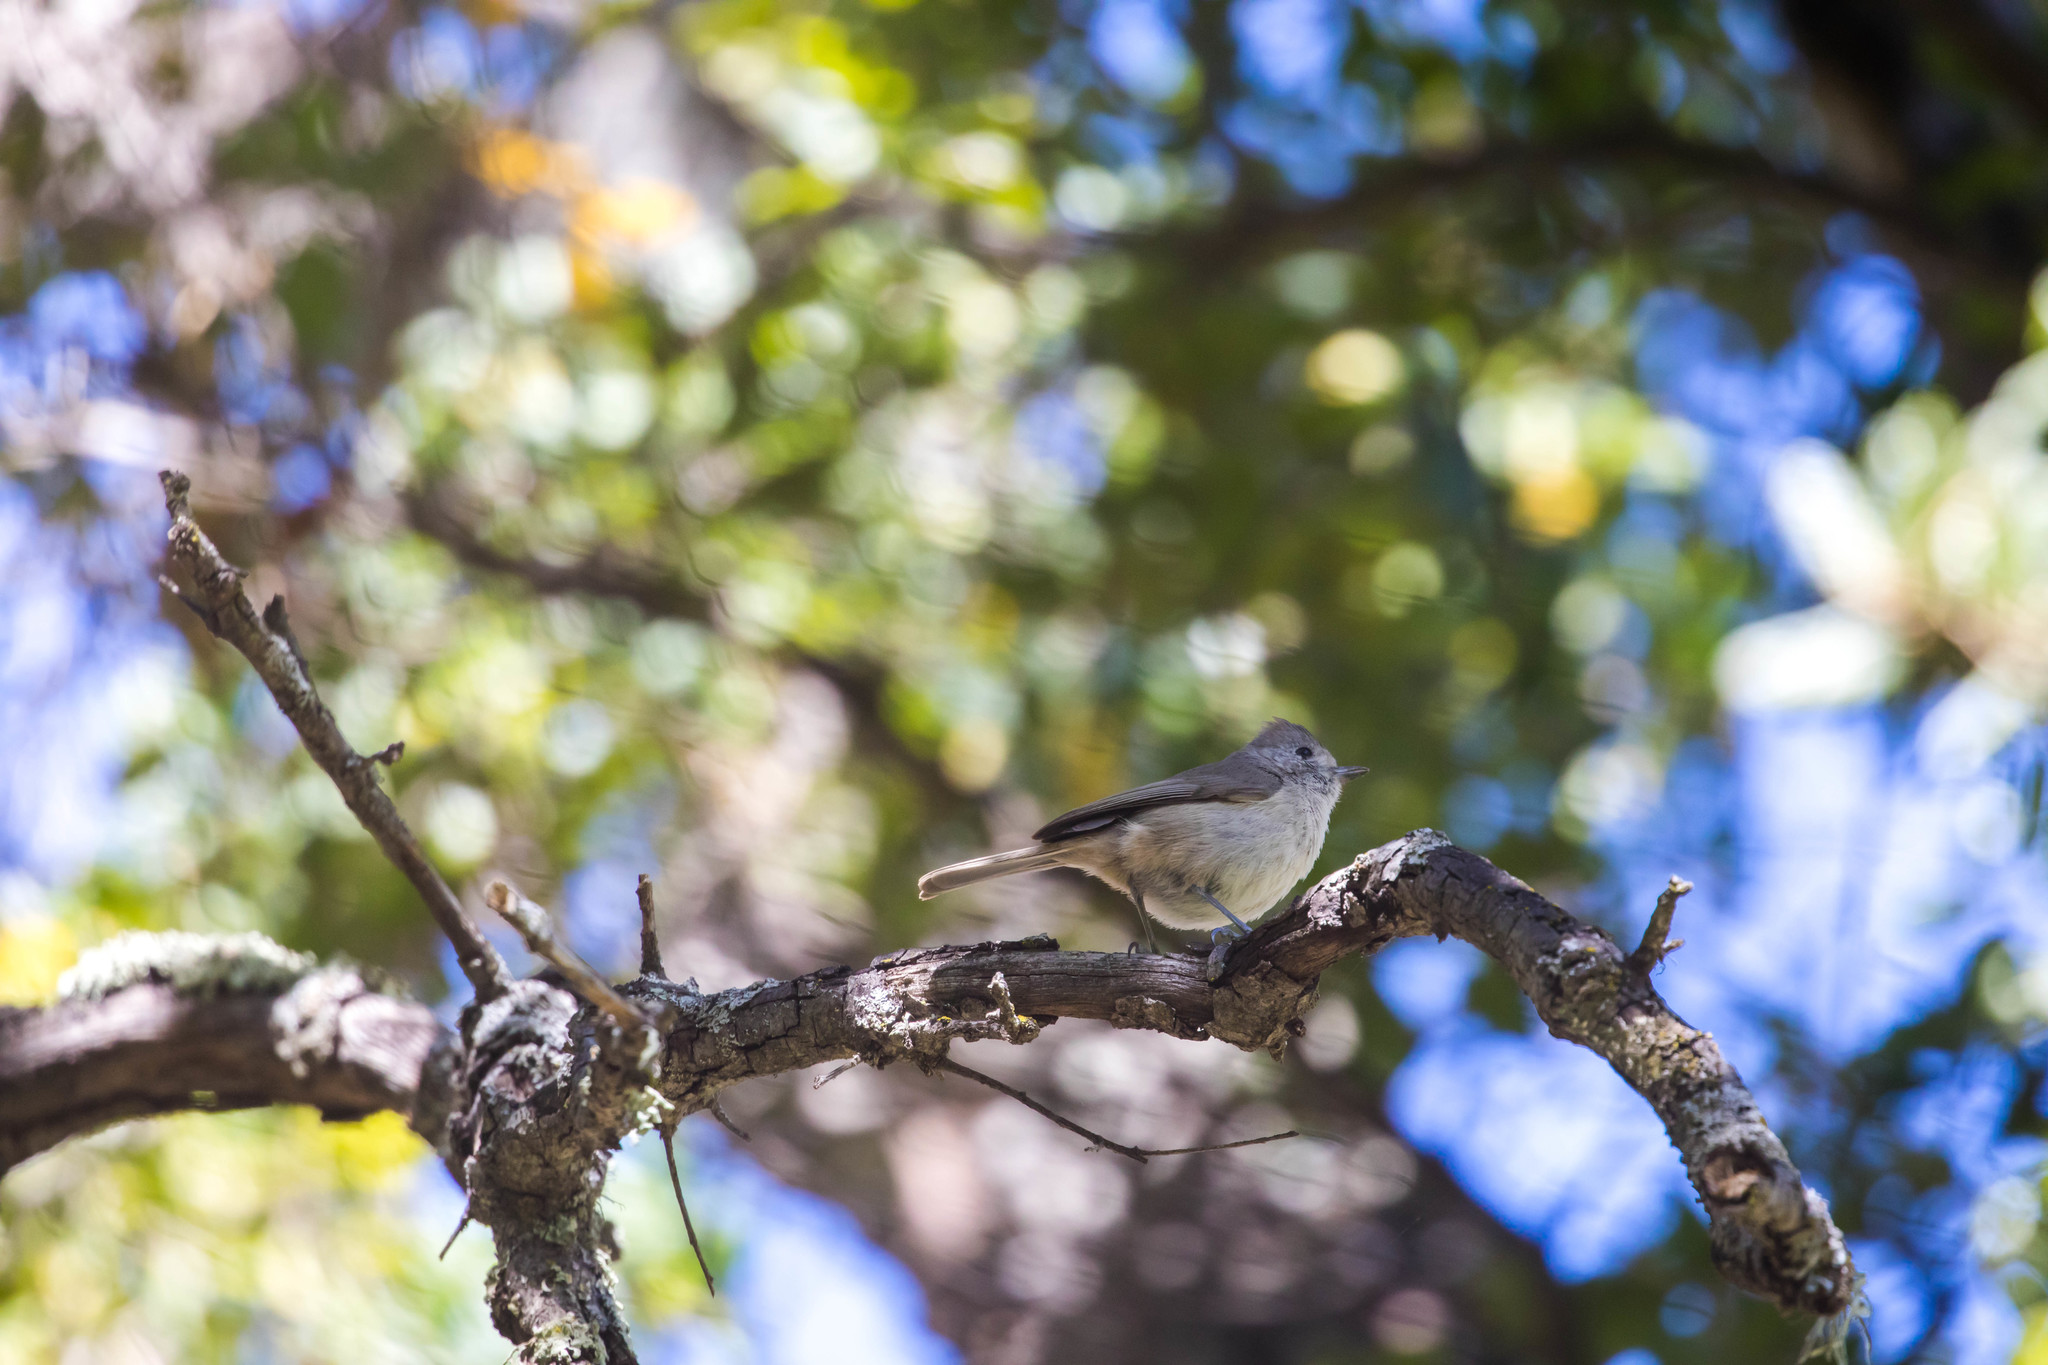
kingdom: Animalia
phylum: Chordata
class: Aves
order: Passeriformes
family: Paridae
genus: Baeolophus
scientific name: Baeolophus inornatus
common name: Oak titmouse
